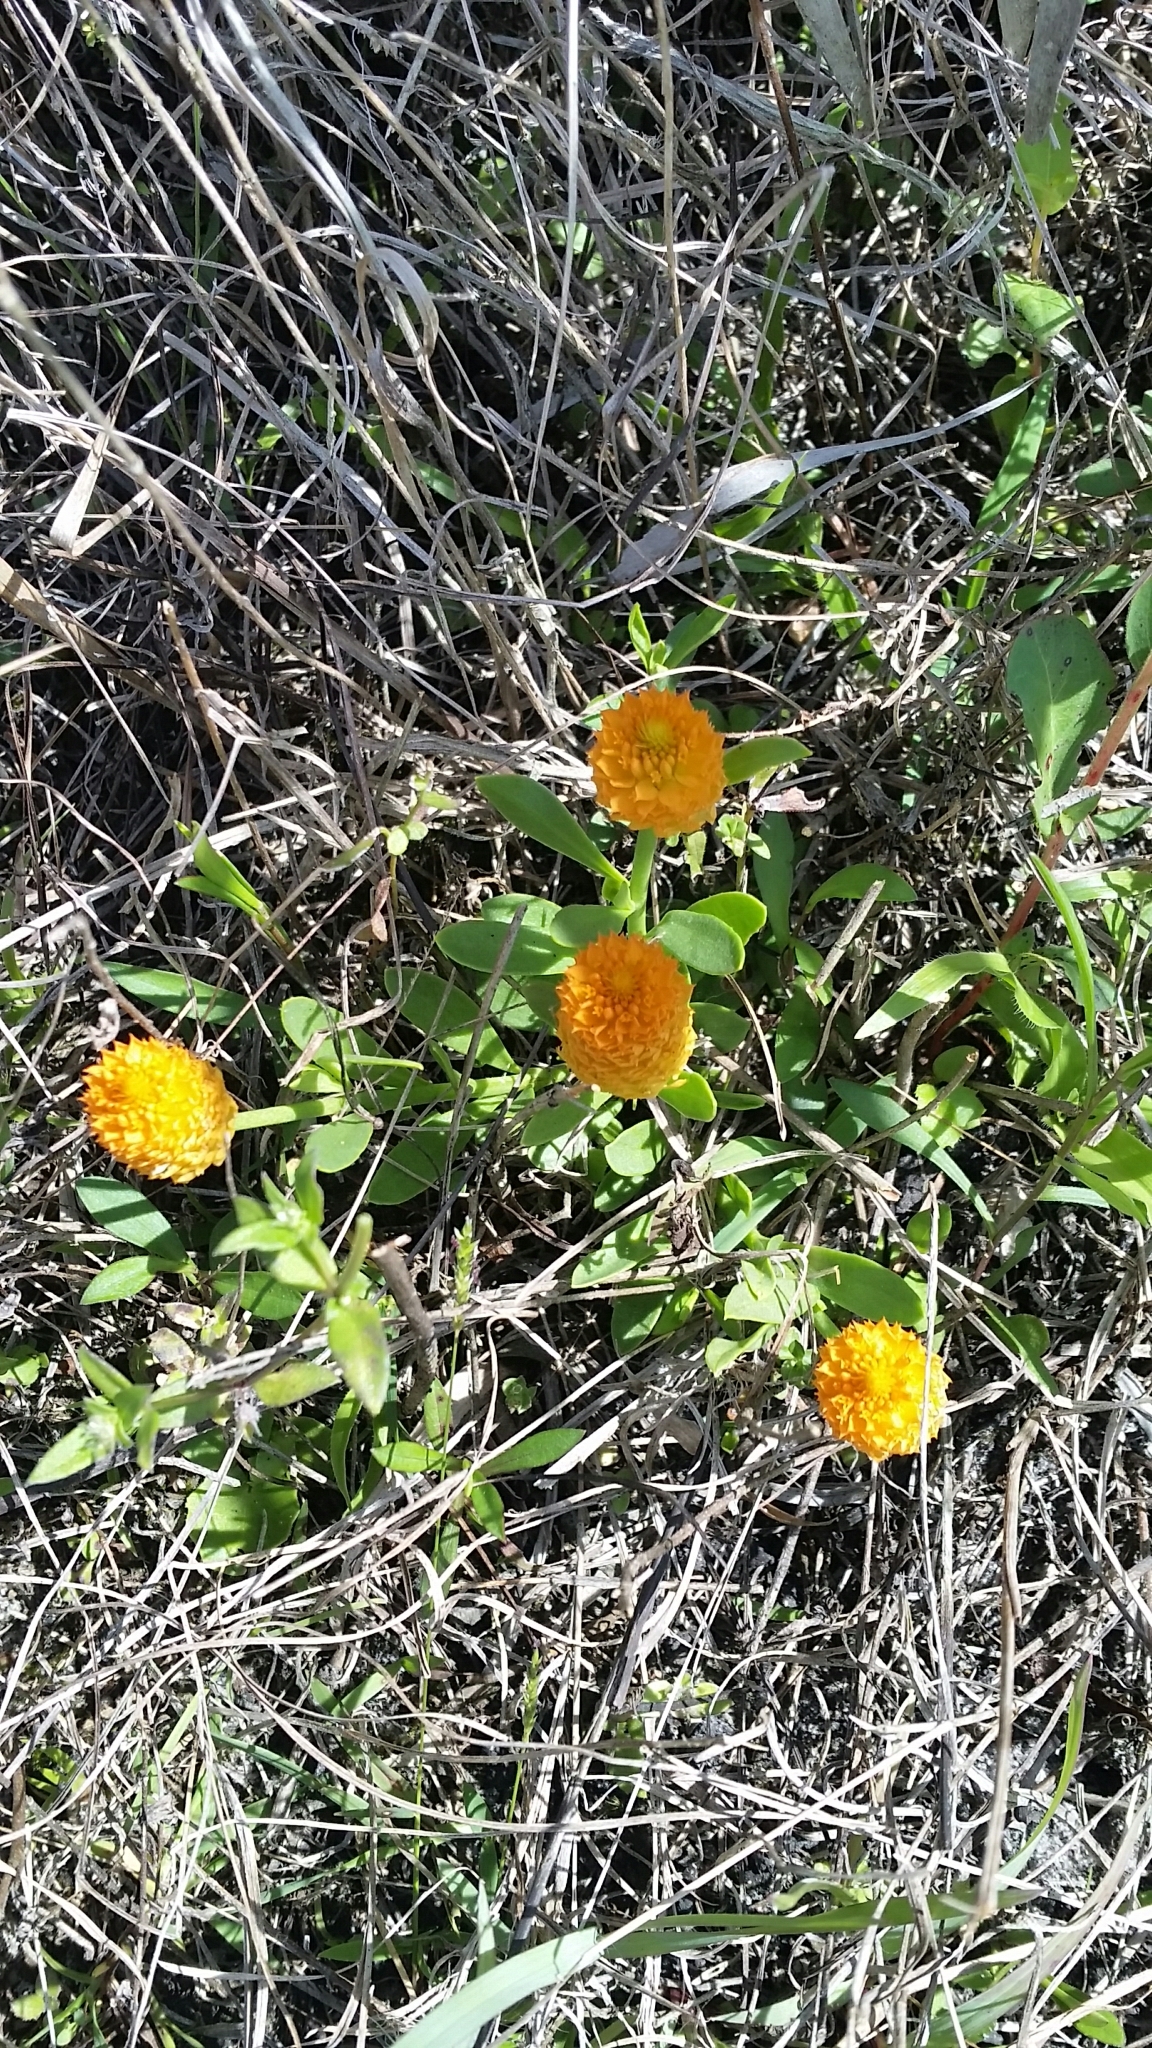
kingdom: Plantae
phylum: Tracheophyta
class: Magnoliopsida
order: Fabales
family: Polygalaceae
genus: Polygala
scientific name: Polygala lutea
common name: Orange milkwort
